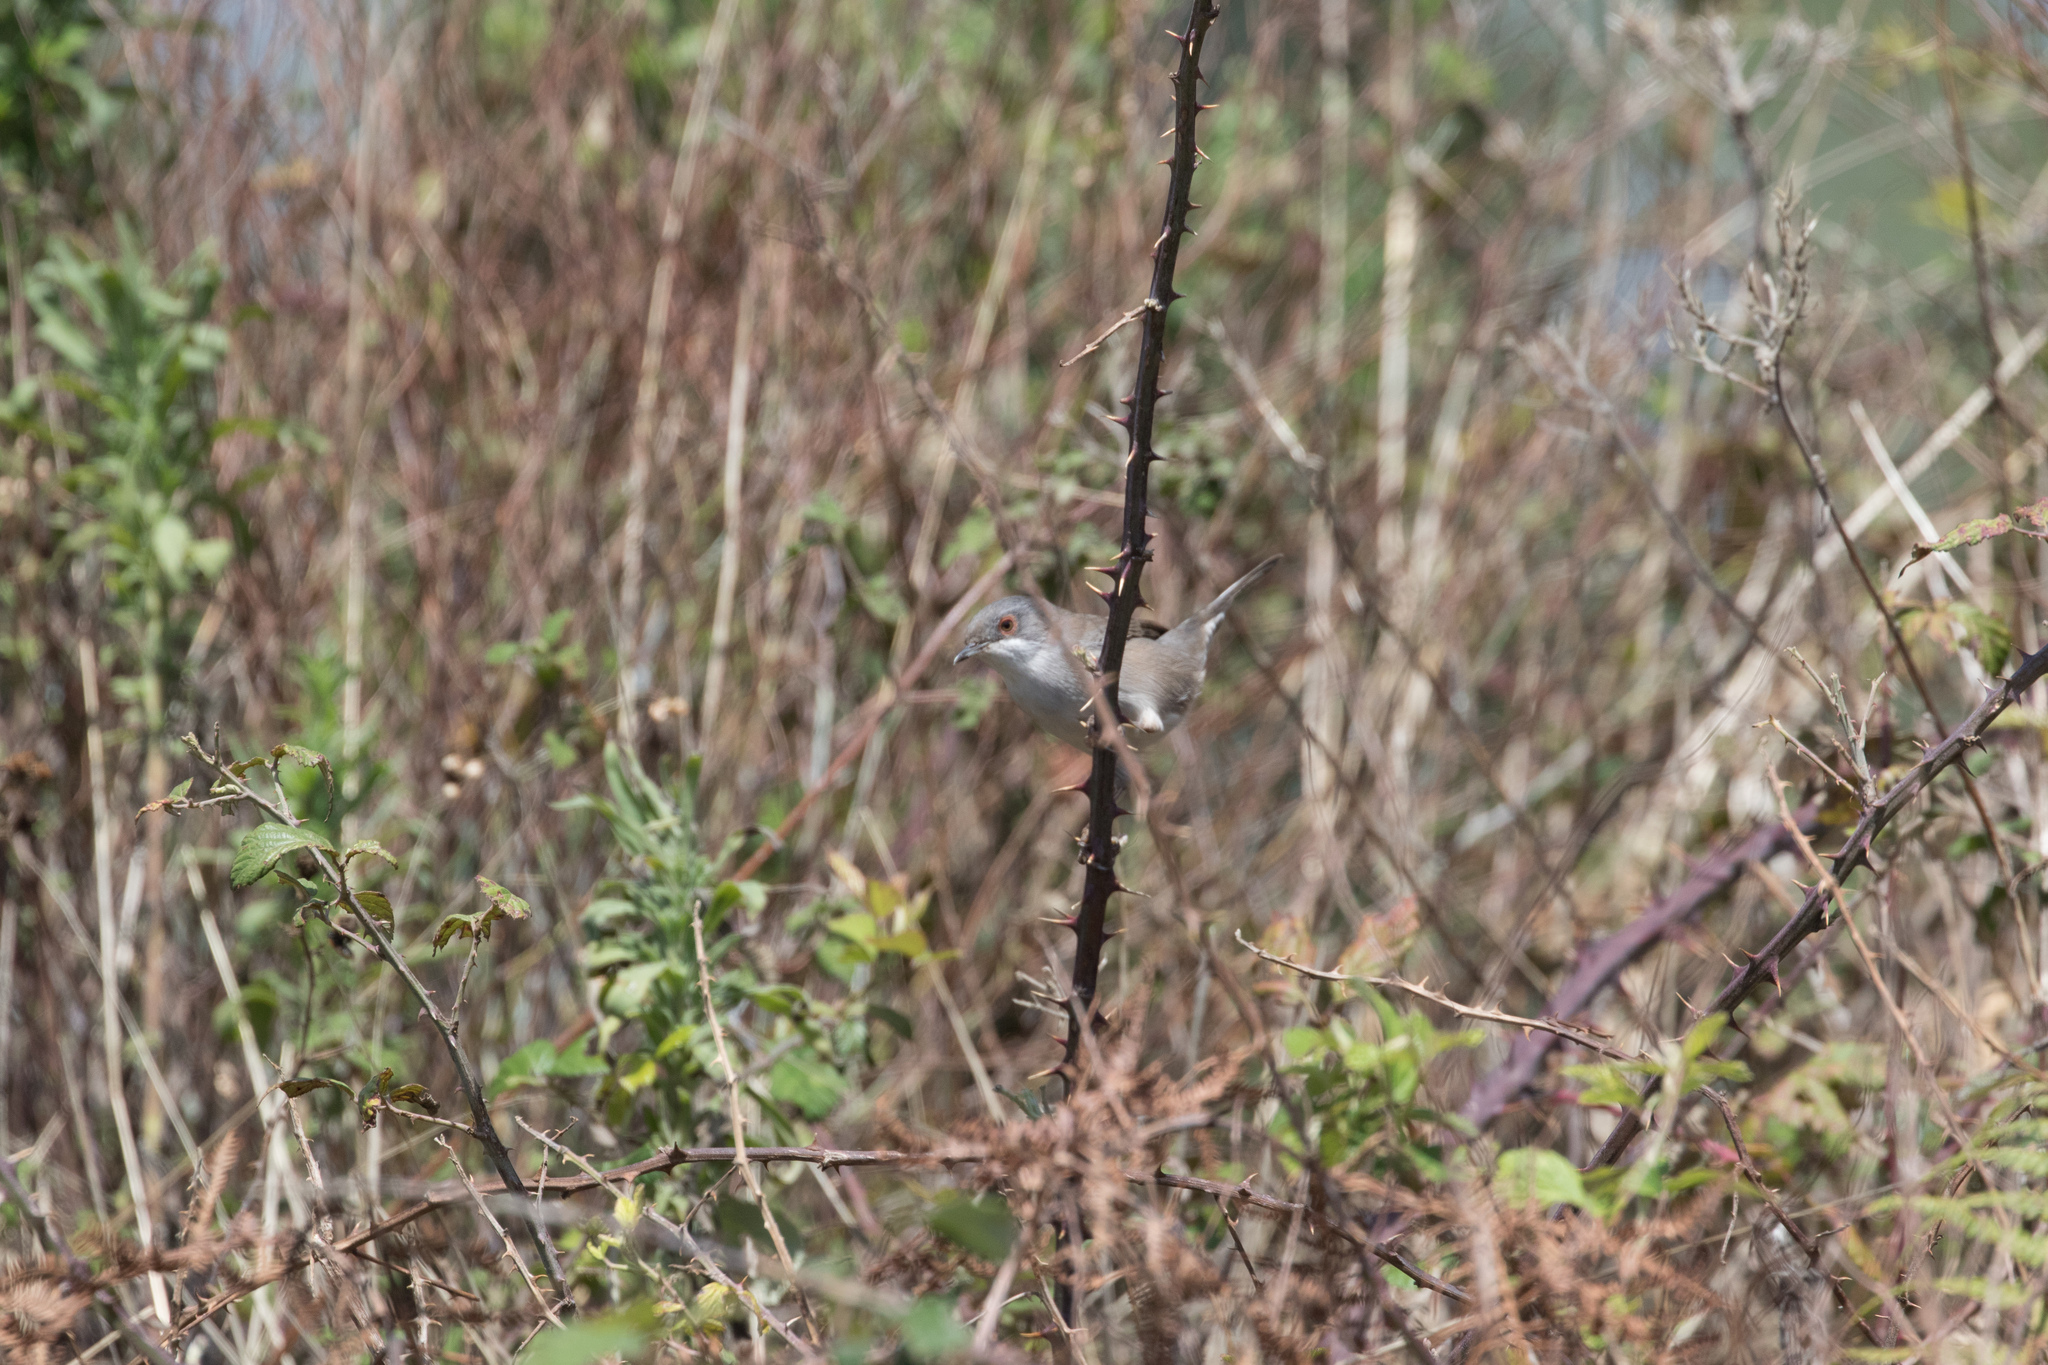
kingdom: Animalia
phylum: Chordata
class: Aves
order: Passeriformes
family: Sylviidae
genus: Curruca
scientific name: Curruca melanocephala
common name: Sardinian warbler
